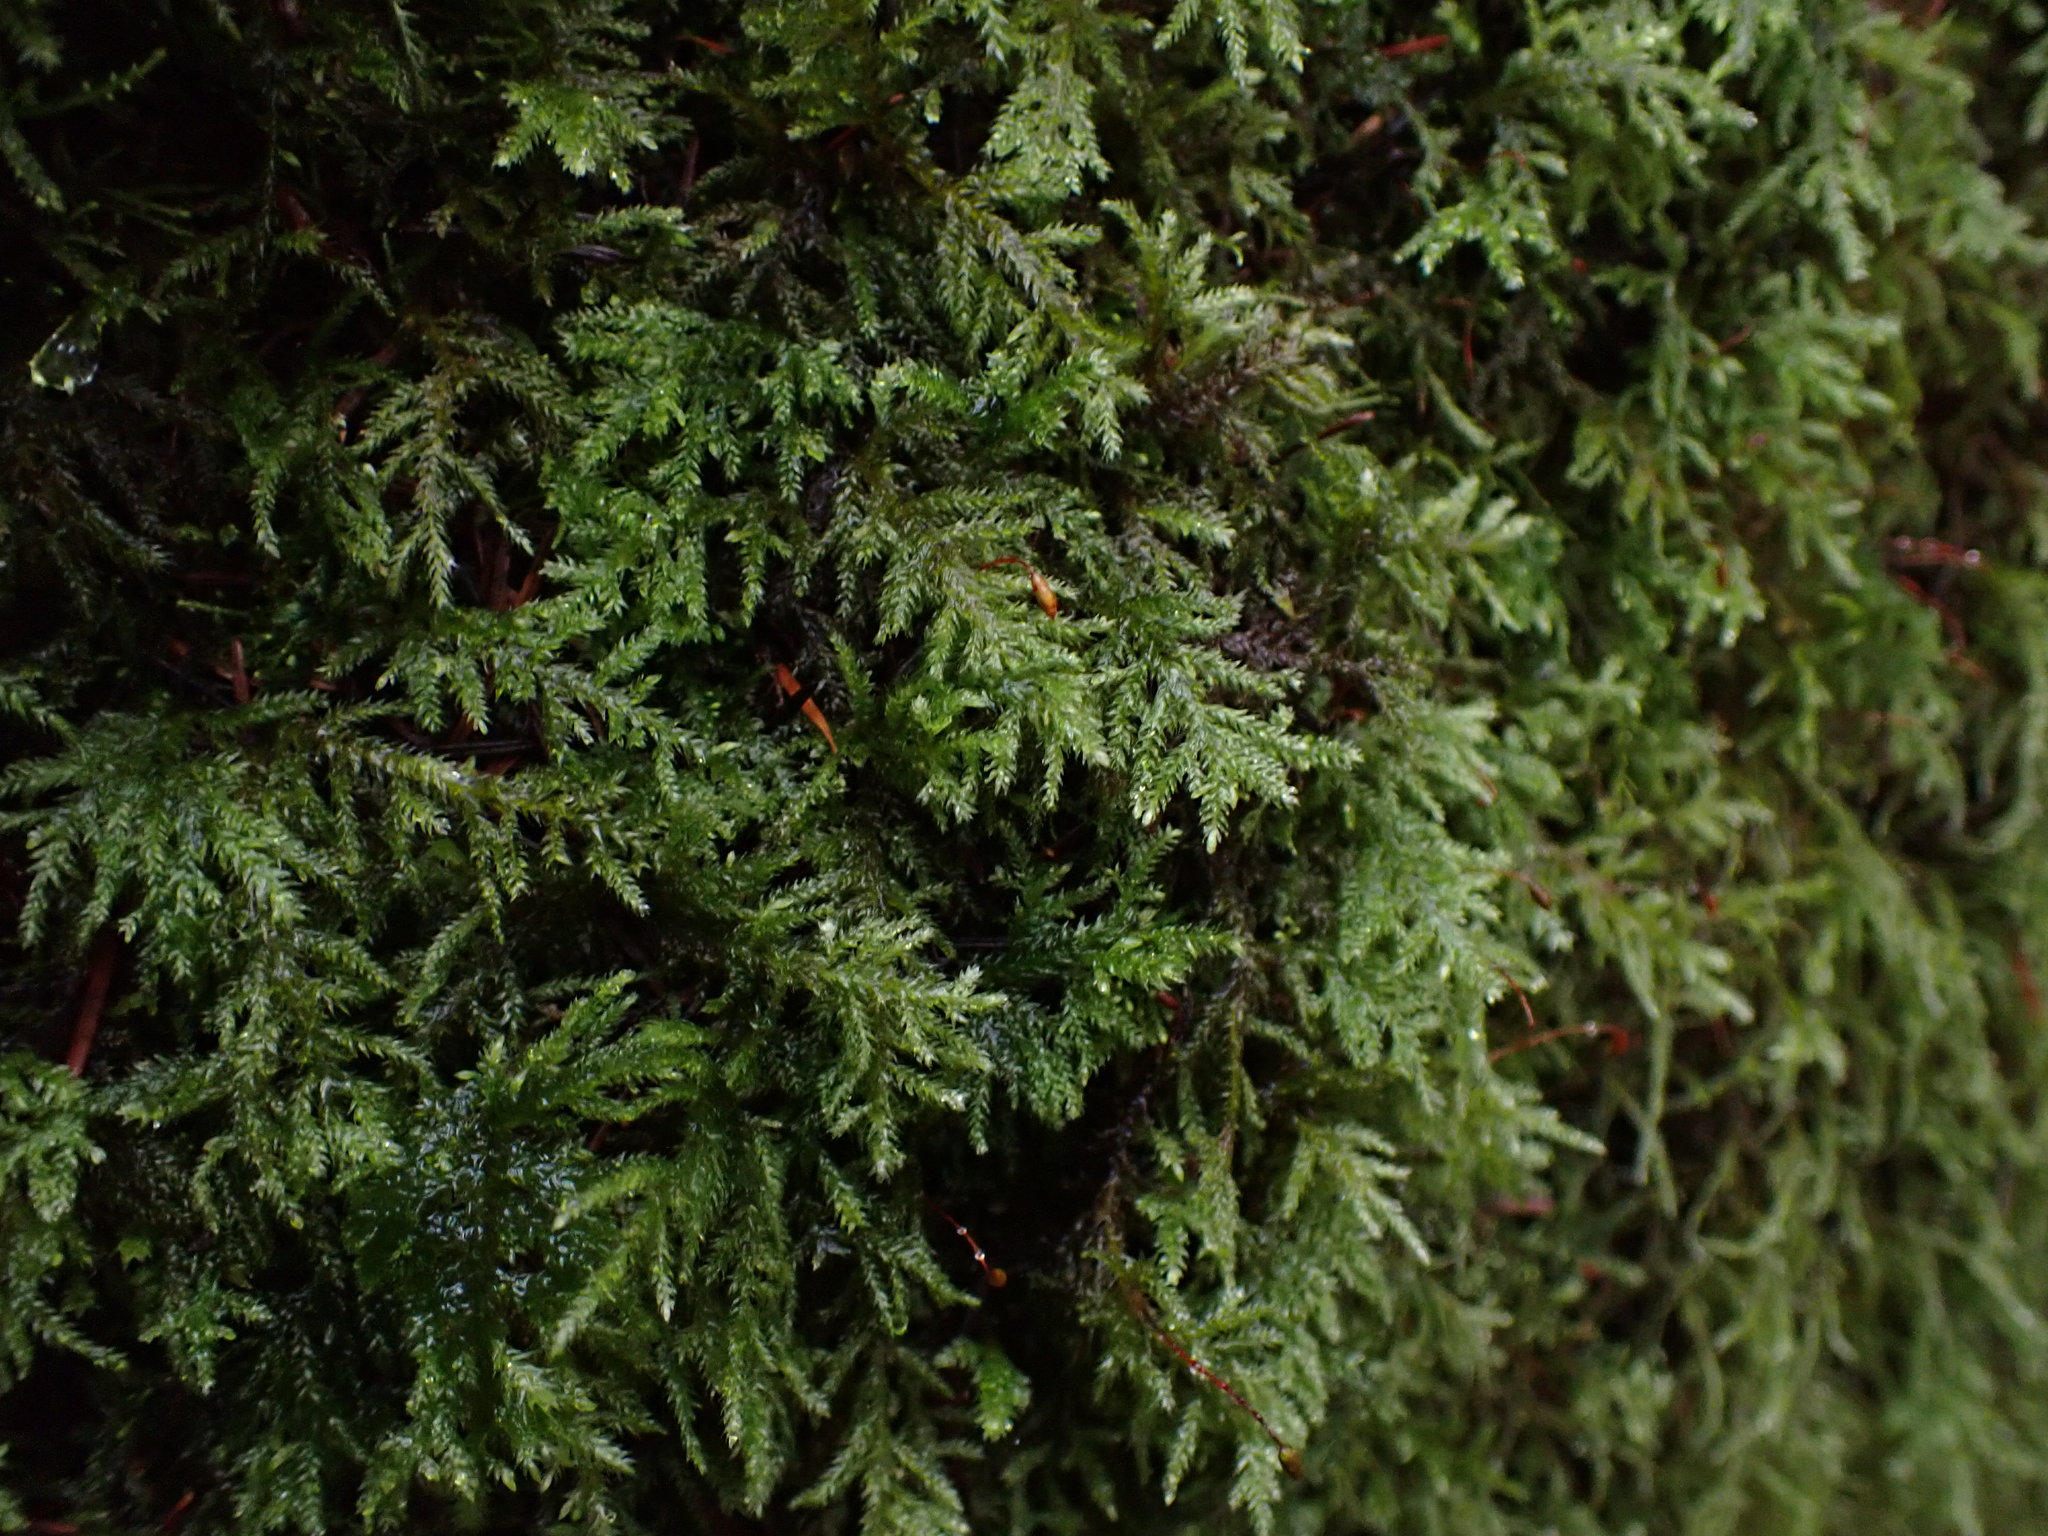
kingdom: Plantae
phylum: Bryophyta
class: Bryopsida
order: Hypnales
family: Lembophyllaceae
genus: Pseudisothecium
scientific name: Pseudisothecium stoloniferum
